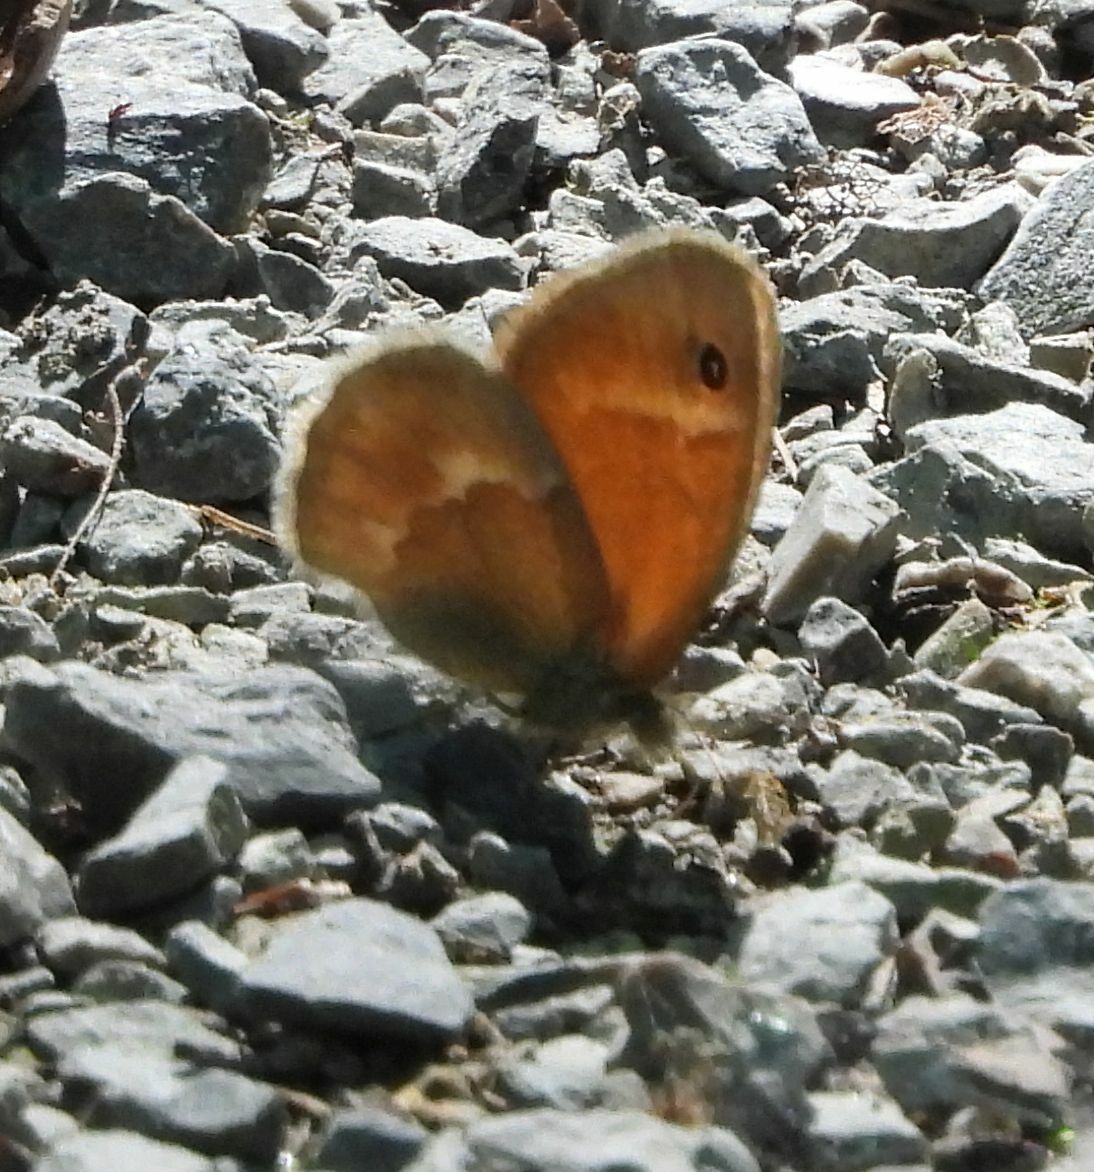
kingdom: Animalia
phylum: Arthropoda
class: Insecta
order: Lepidoptera
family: Nymphalidae
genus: Coenonympha
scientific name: Coenonympha california
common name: Common ringlet
